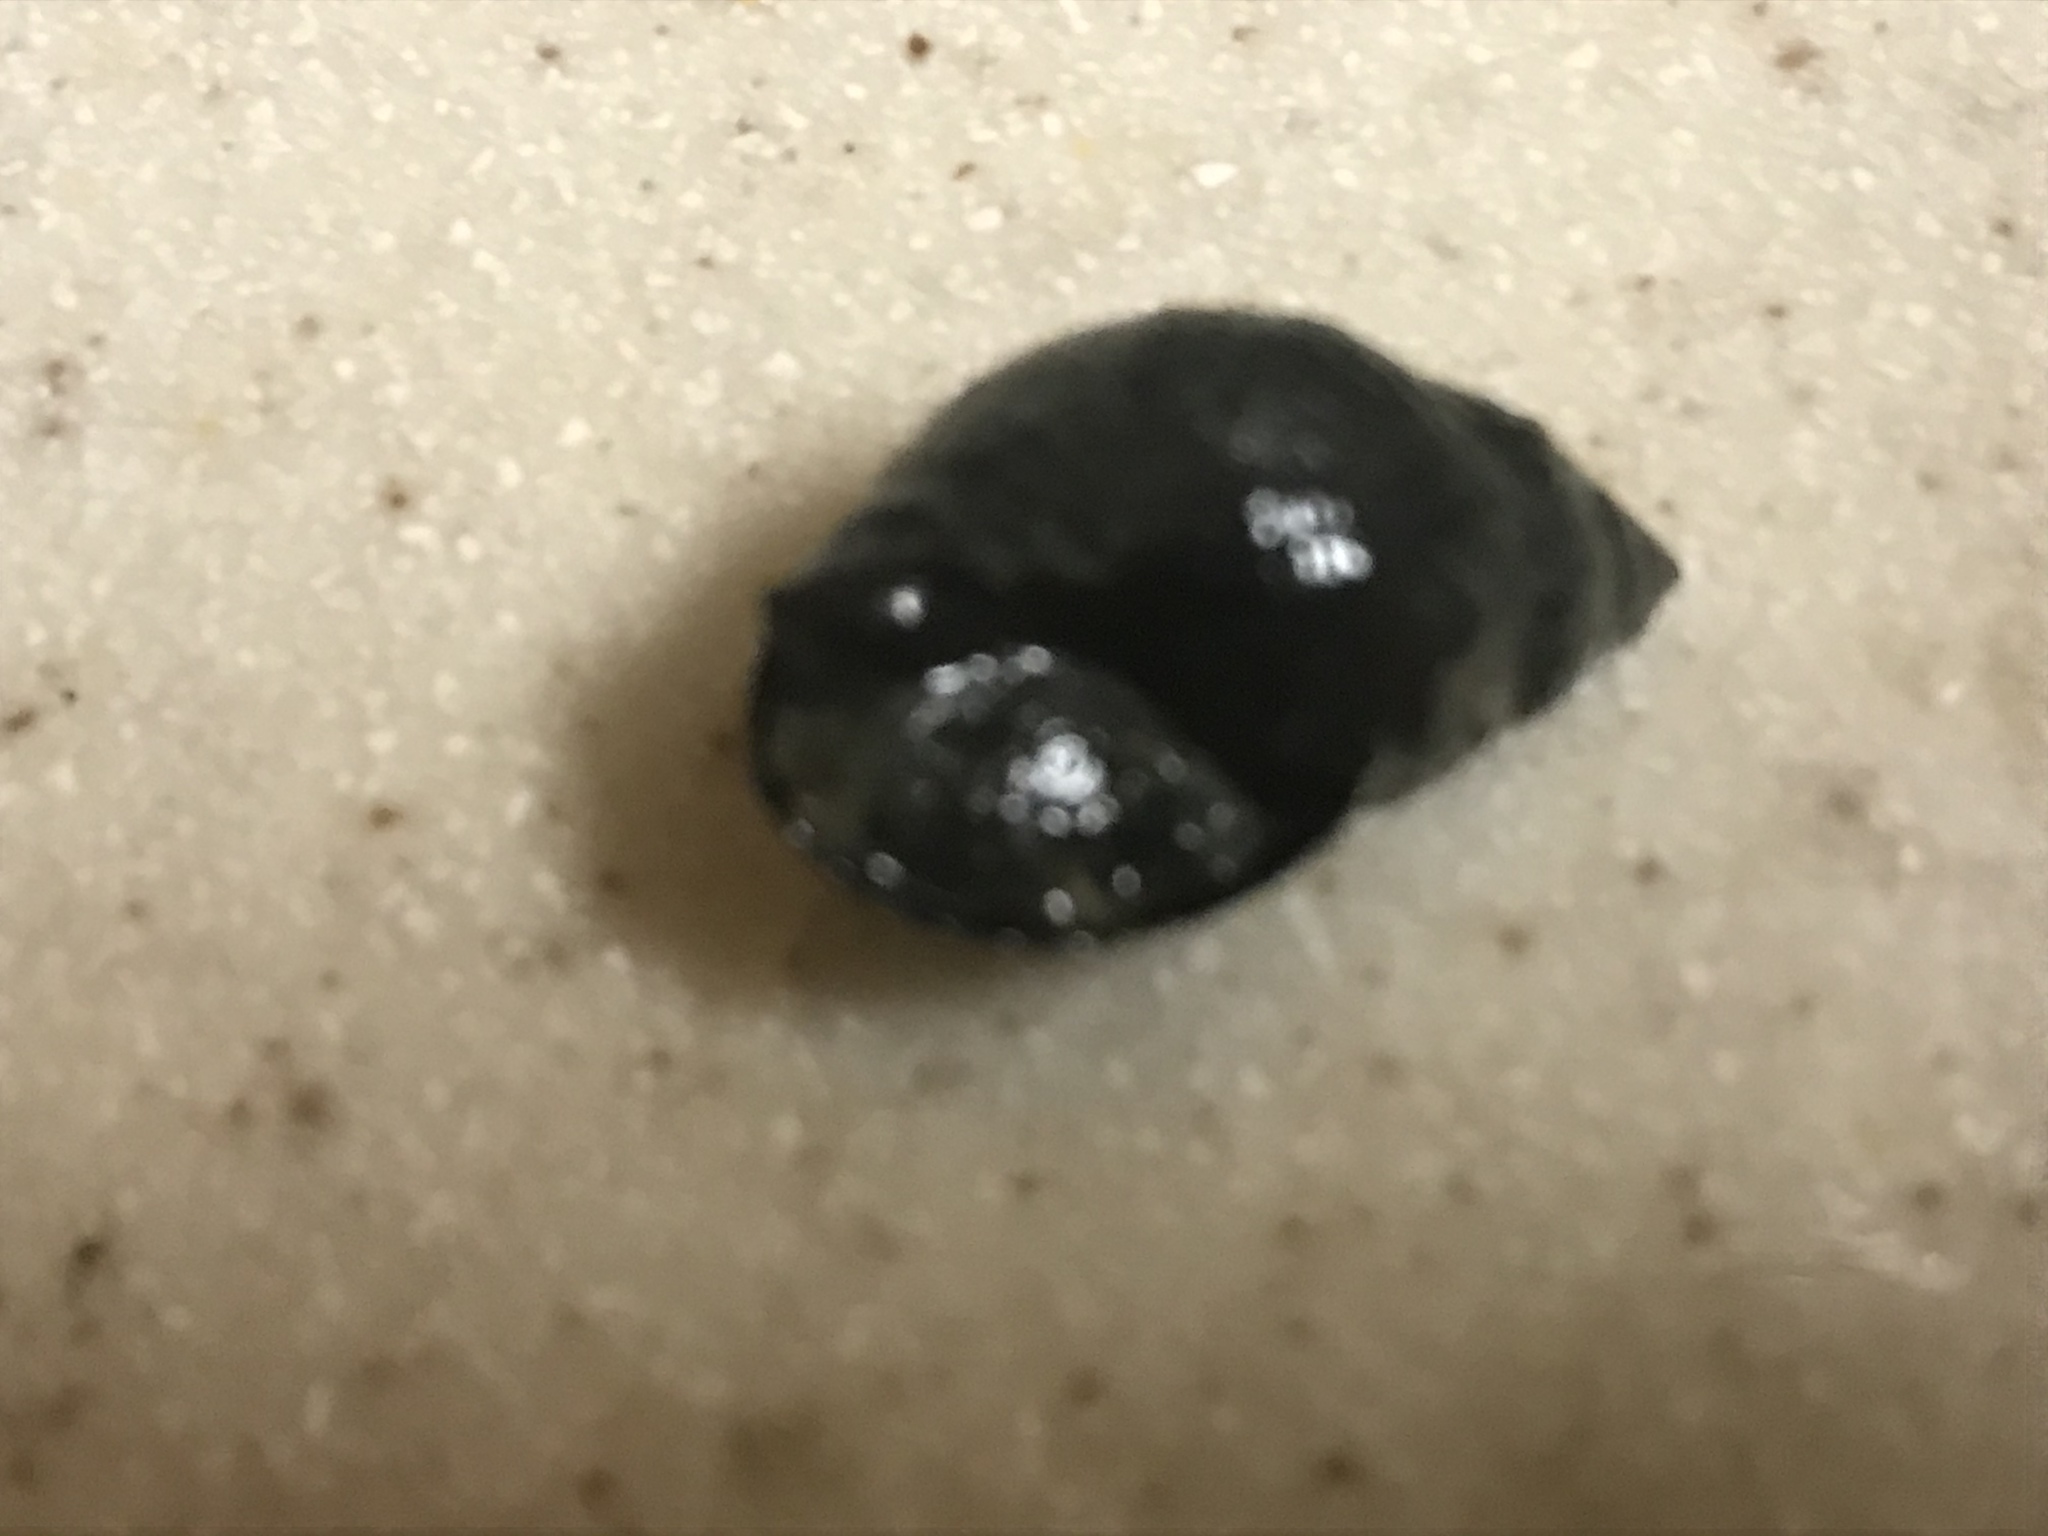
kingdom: Animalia
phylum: Mollusca
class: Gastropoda
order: Neogastropoda
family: Nassariidae
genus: Ilyanassa
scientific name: Ilyanassa obsoleta
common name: Eastern mudsnail
